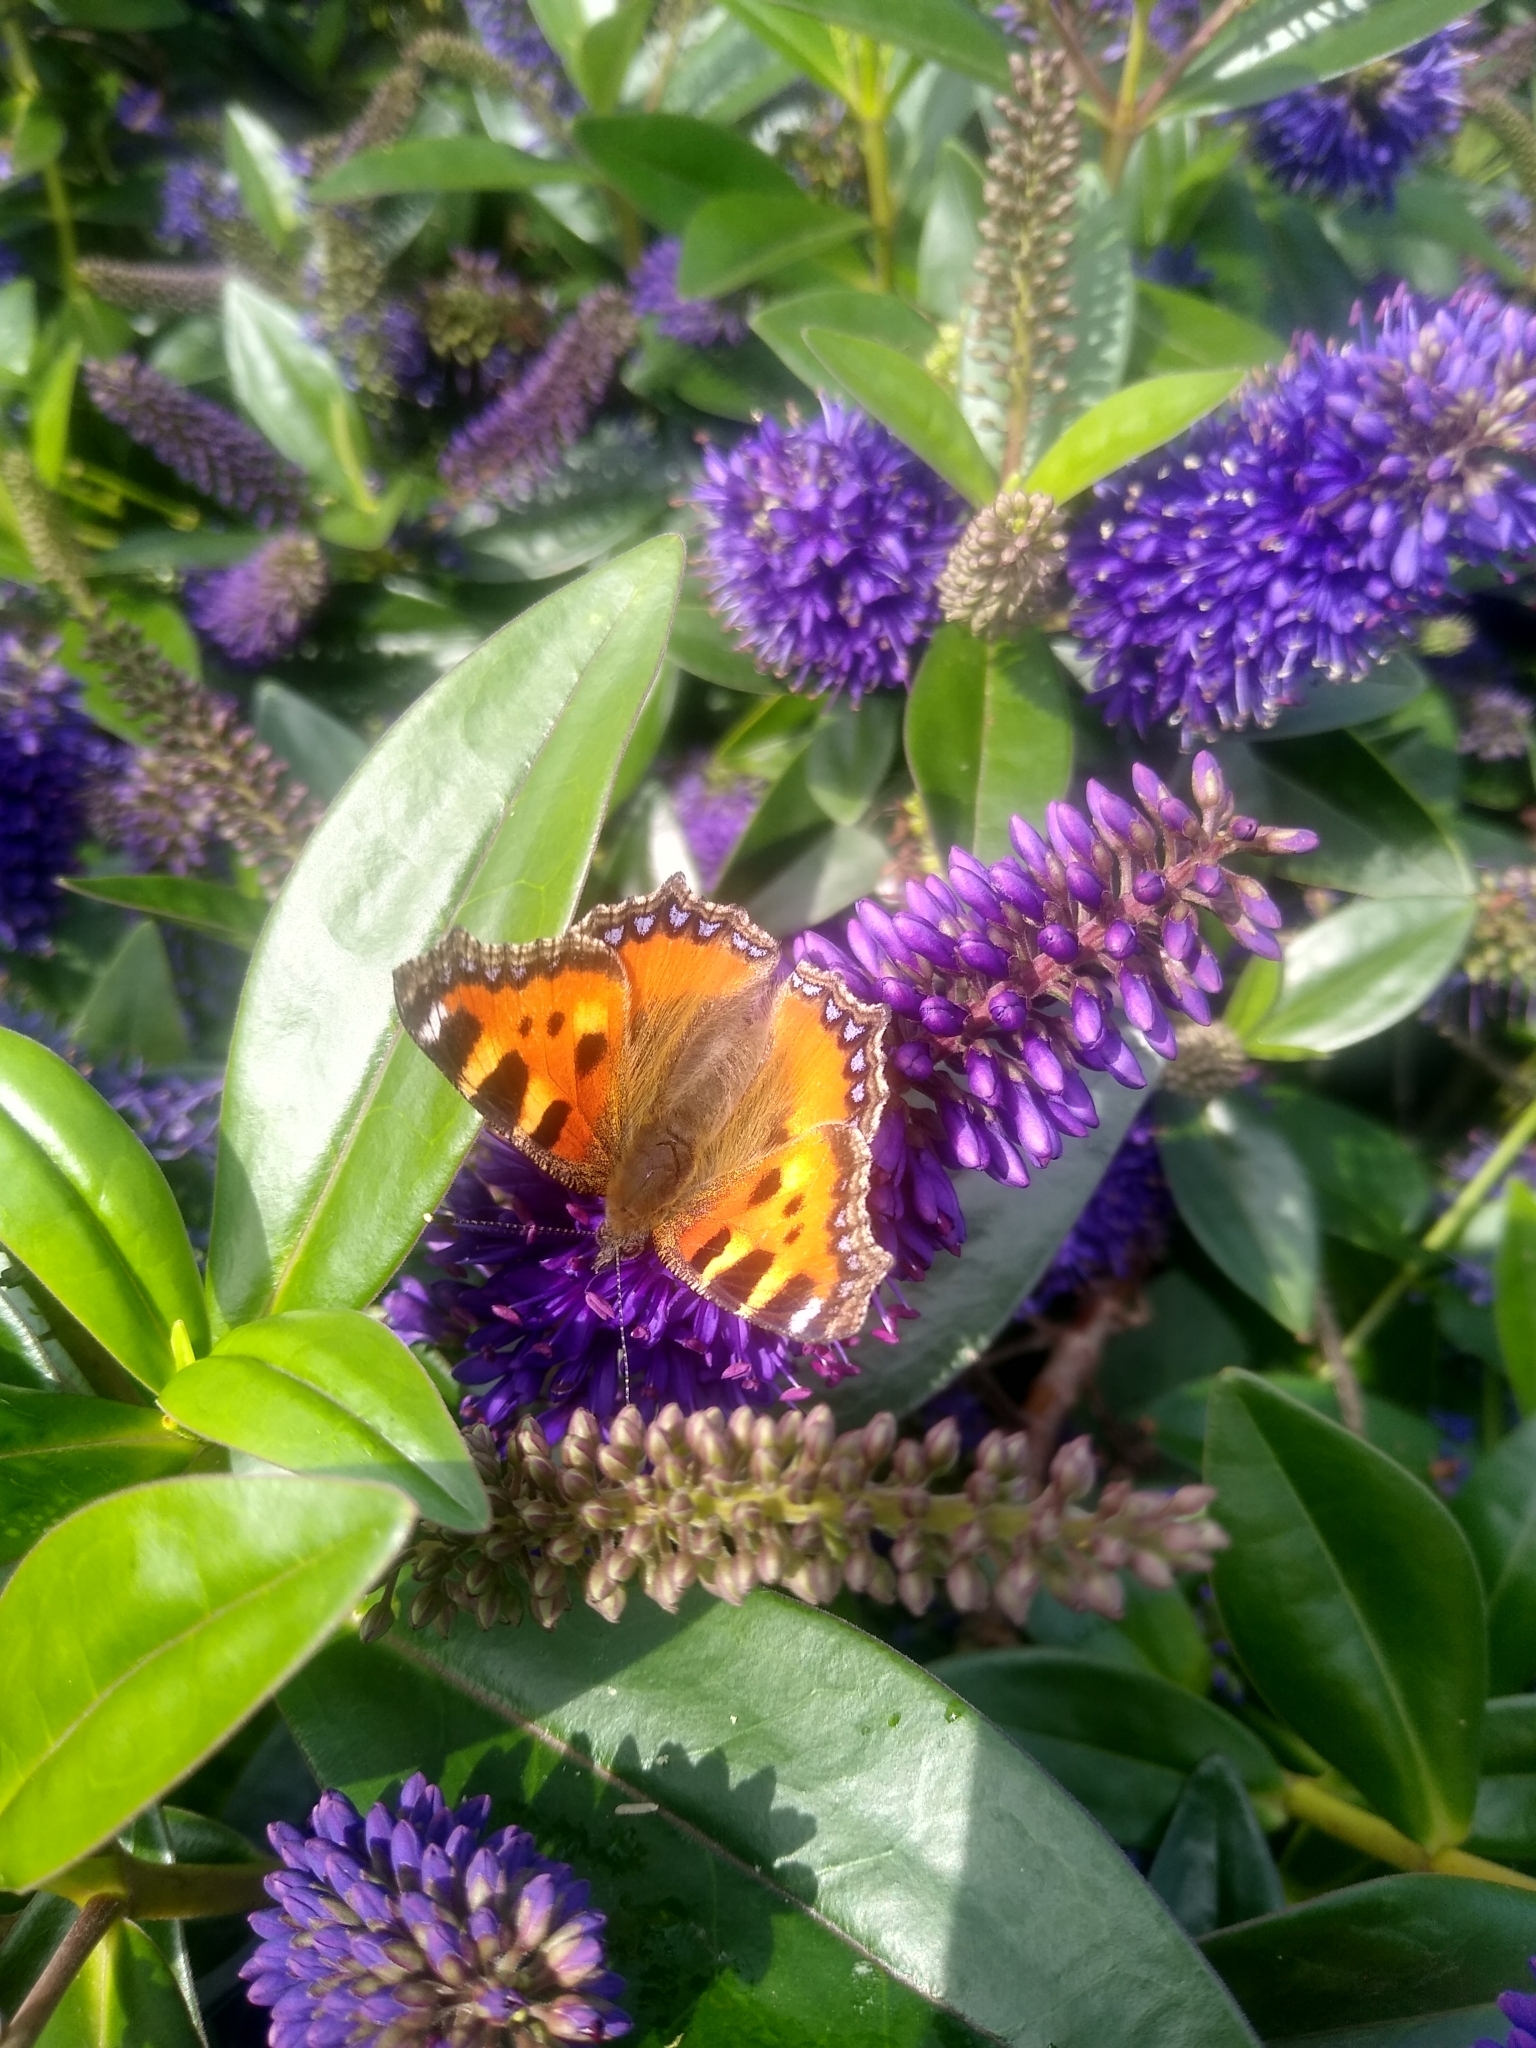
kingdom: Animalia
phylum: Arthropoda
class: Insecta
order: Lepidoptera
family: Nymphalidae
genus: Aglais
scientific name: Aglais urticae
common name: Small tortoiseshell
